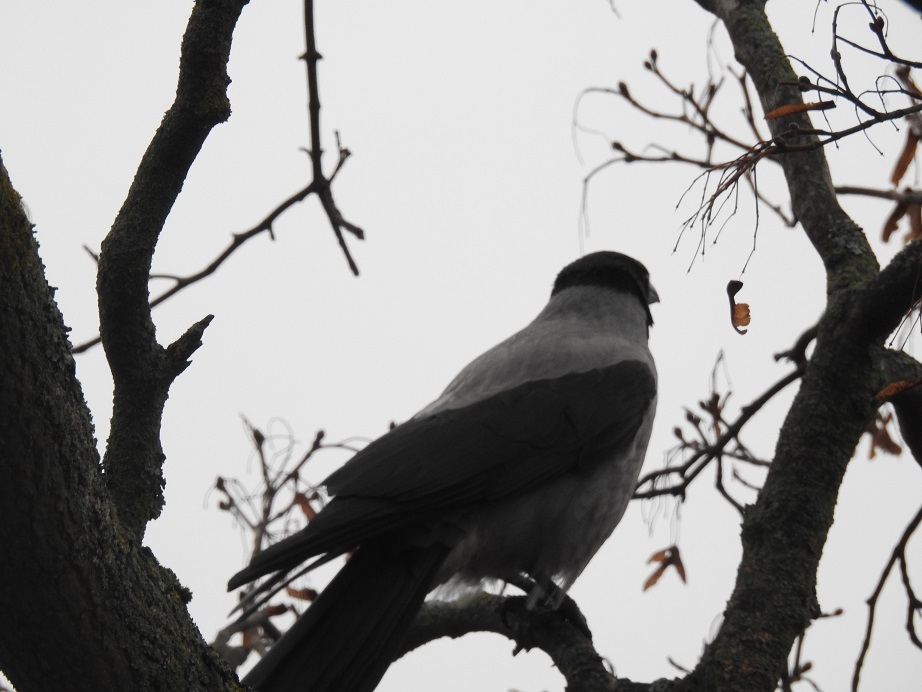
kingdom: Animalia
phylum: Chordata
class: Aves
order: Passeriformes
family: Corvidae
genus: Corvus
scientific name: Corvus cornix
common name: Hooded crow
